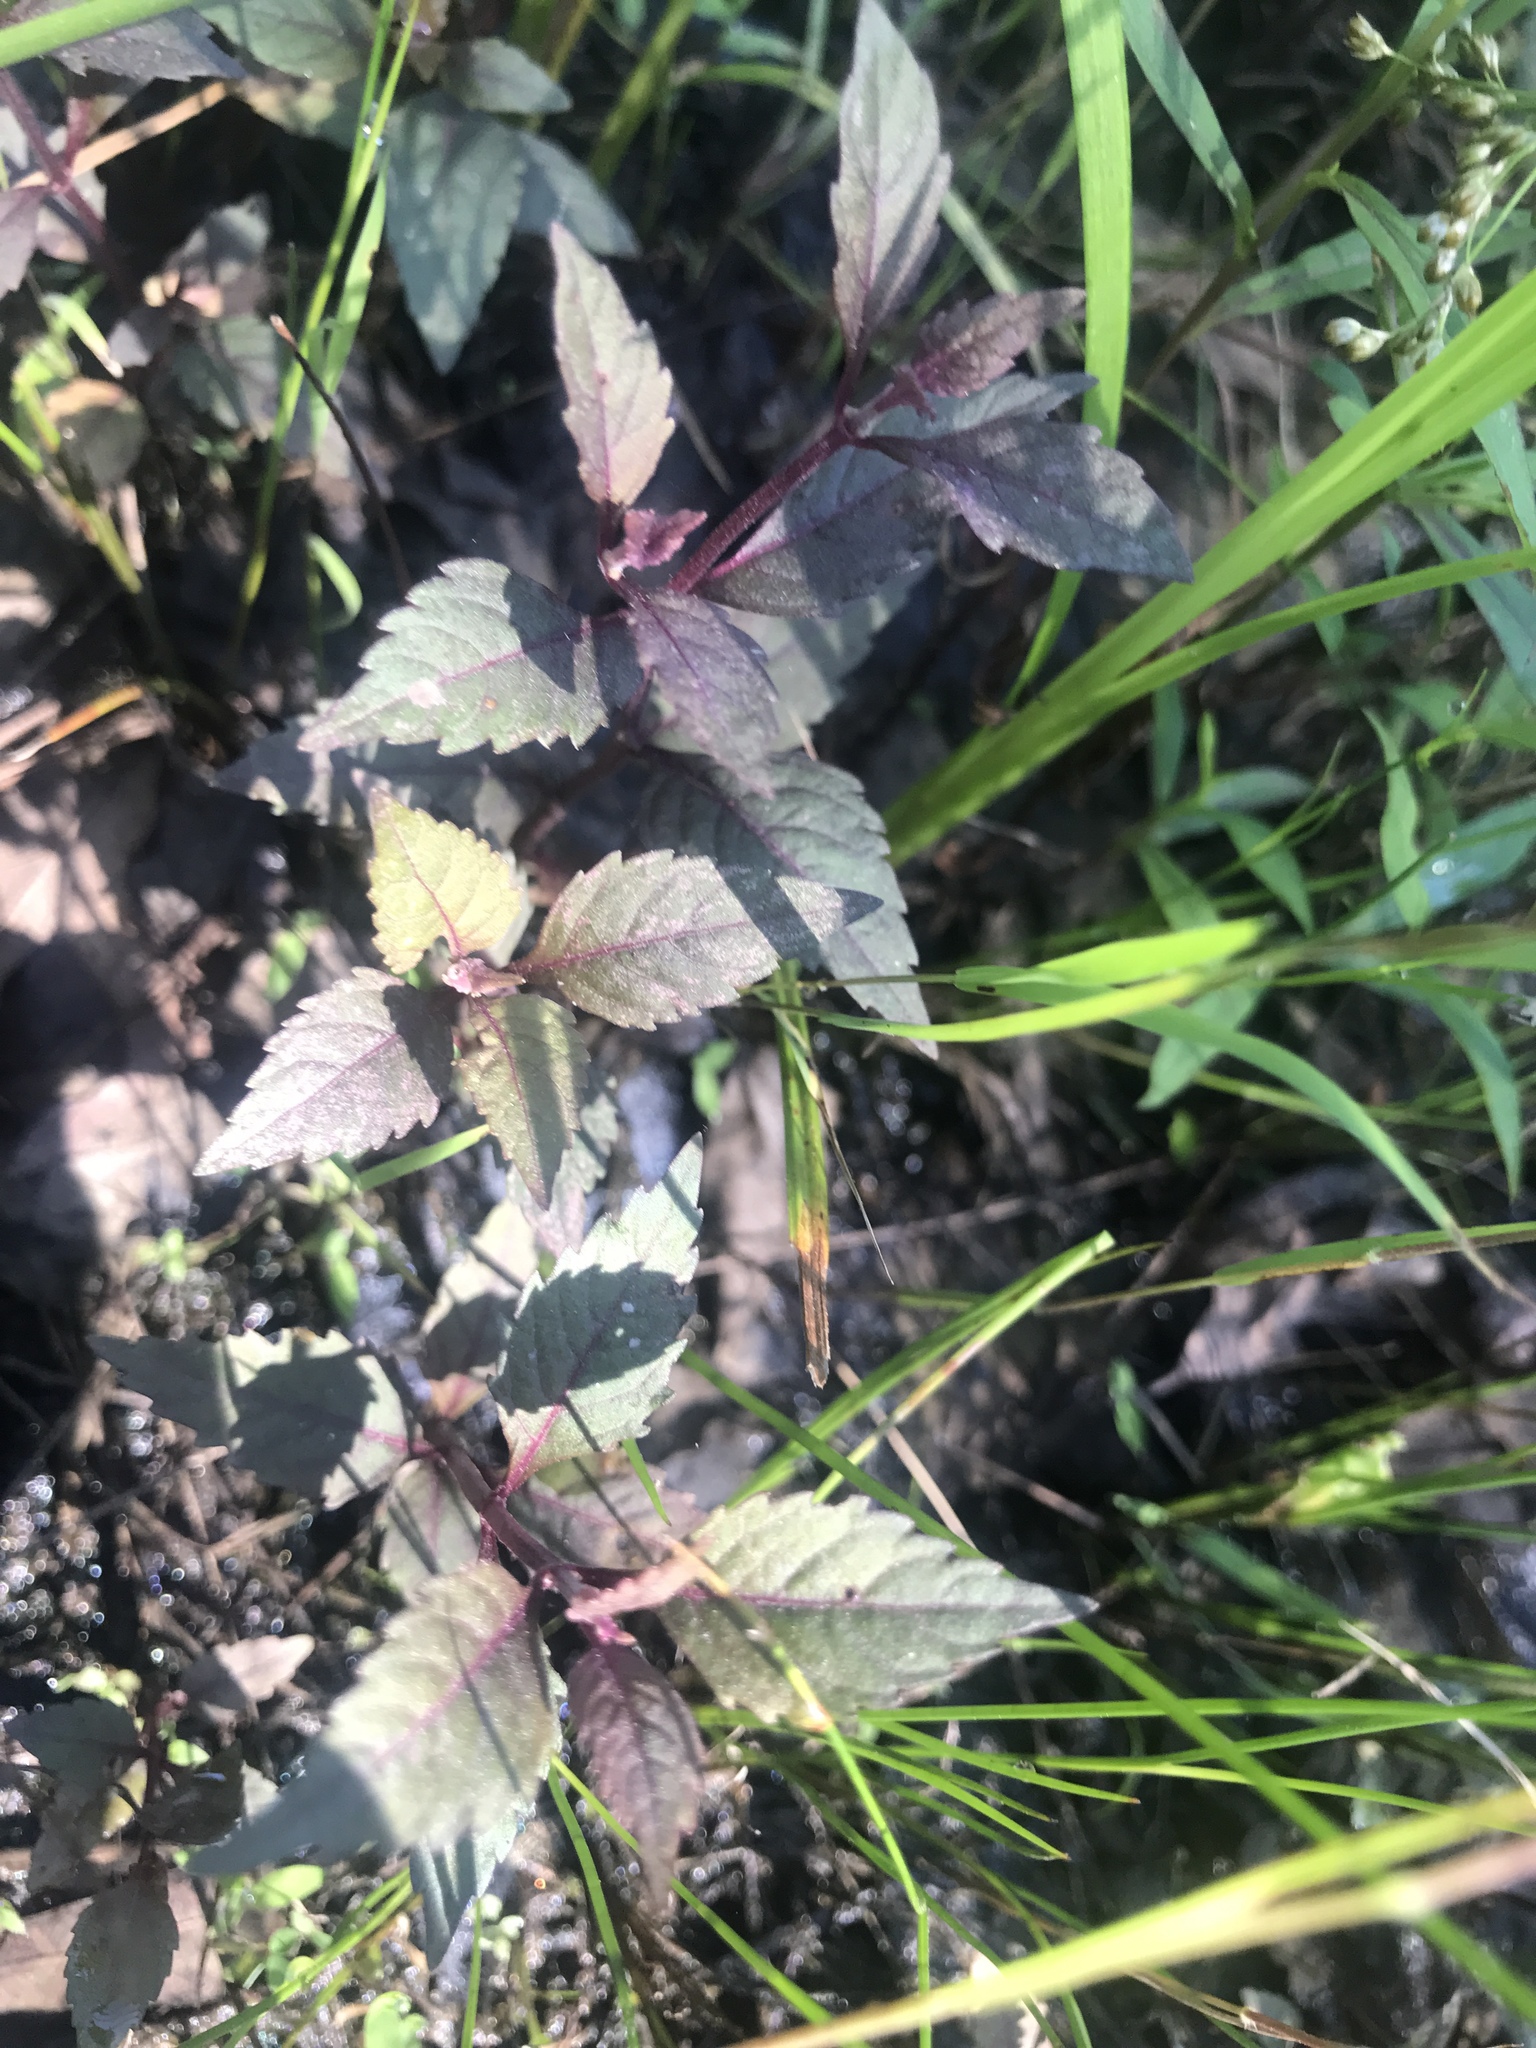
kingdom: Plantae
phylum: Tracheophyta
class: Magnoliopsida
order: Lamiales
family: Lamiaceae
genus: Lycopus
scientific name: Lycopus virginicus
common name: Bugleweed
